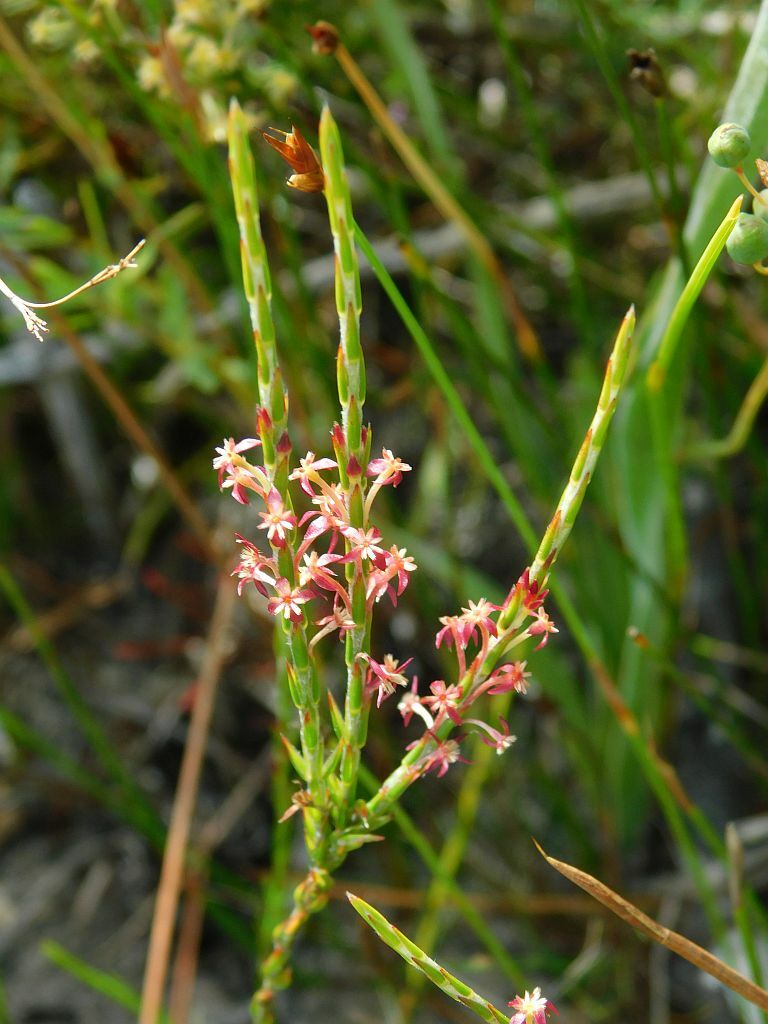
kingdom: Plantae
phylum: Tracheophyta
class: Magnoliopsida
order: Malvales
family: Thymelaeaceae
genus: Struthiola
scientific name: Struthiola ciliata
